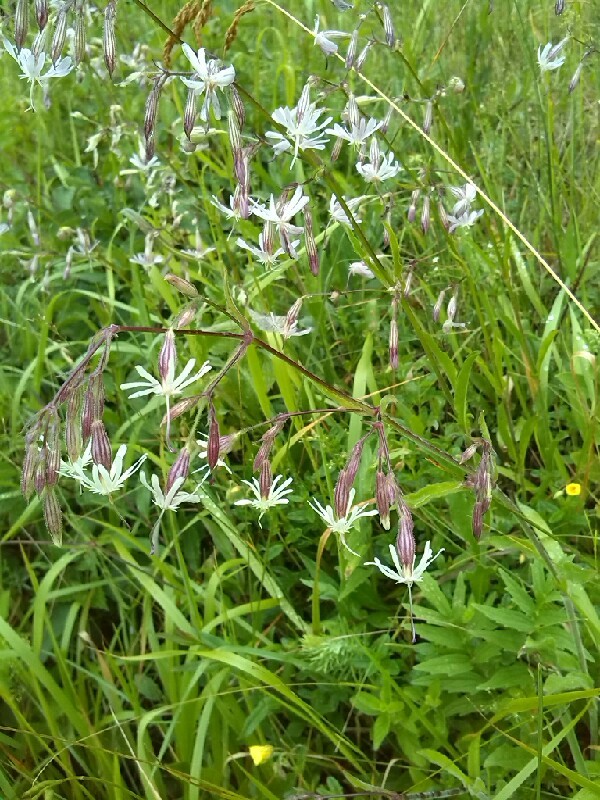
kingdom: Plantae
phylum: Tracheophyta
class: Magnoliopsida
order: Caryophyllales
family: Caryophyllaceae
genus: Silene
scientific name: Silene nutans
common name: Nottingham catchfly
